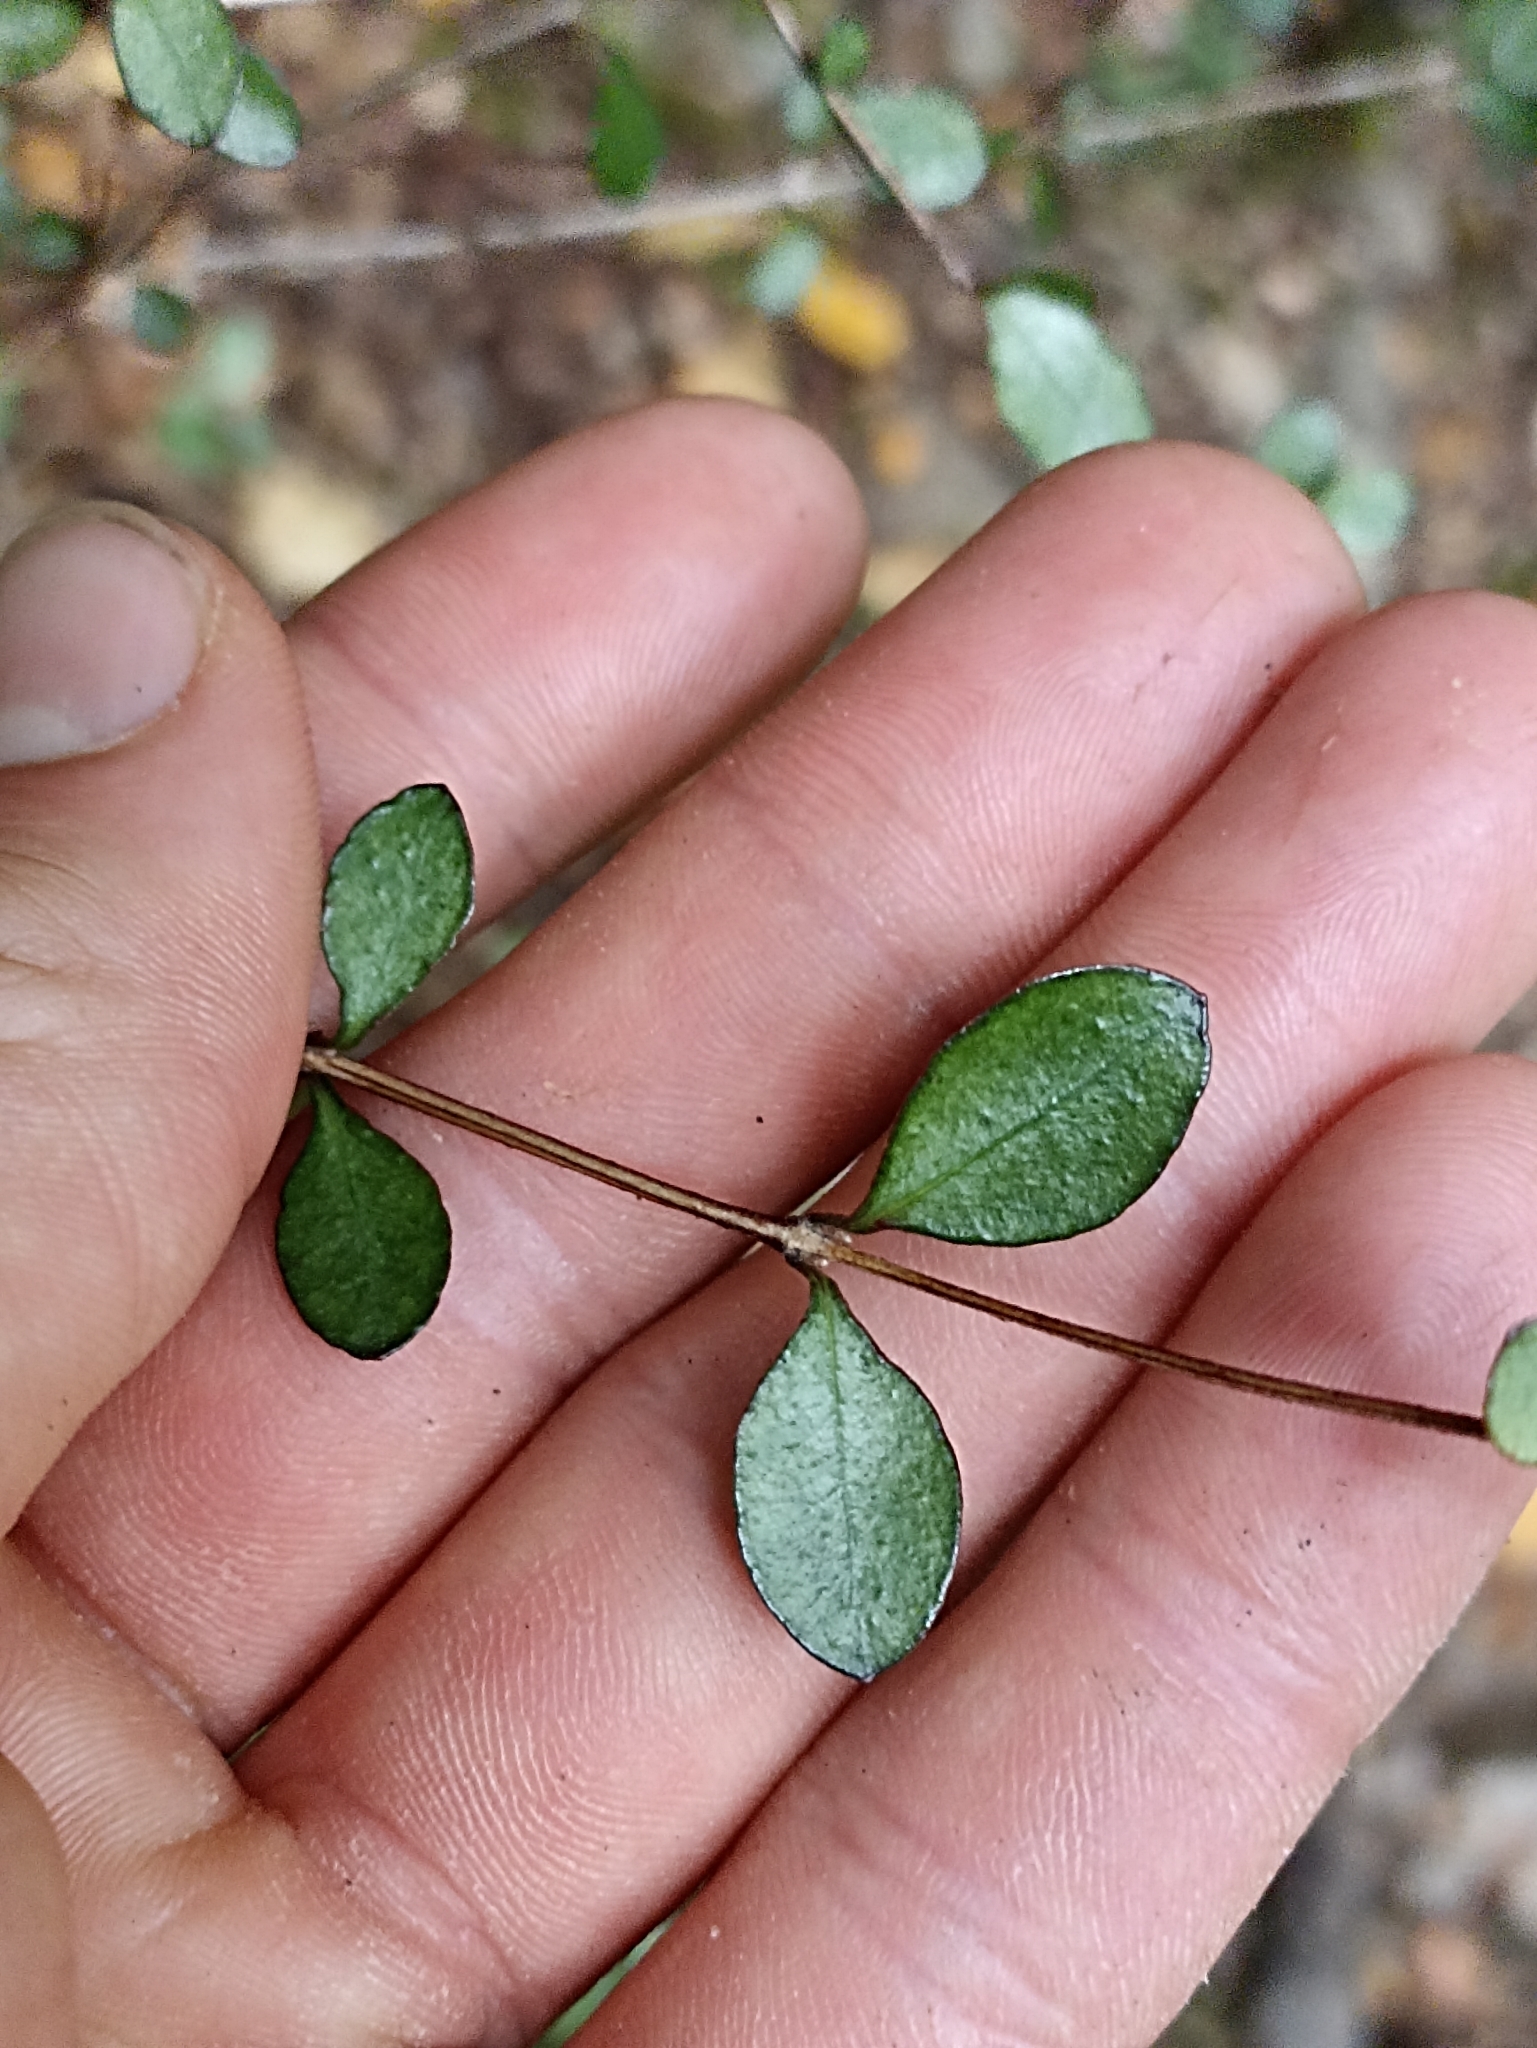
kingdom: Plantae
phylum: Tracheophyta
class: Magnoliopsida
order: Myrtales
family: Myrtaceae
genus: Neomyrtus
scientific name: Neomyrtus pedunculata
